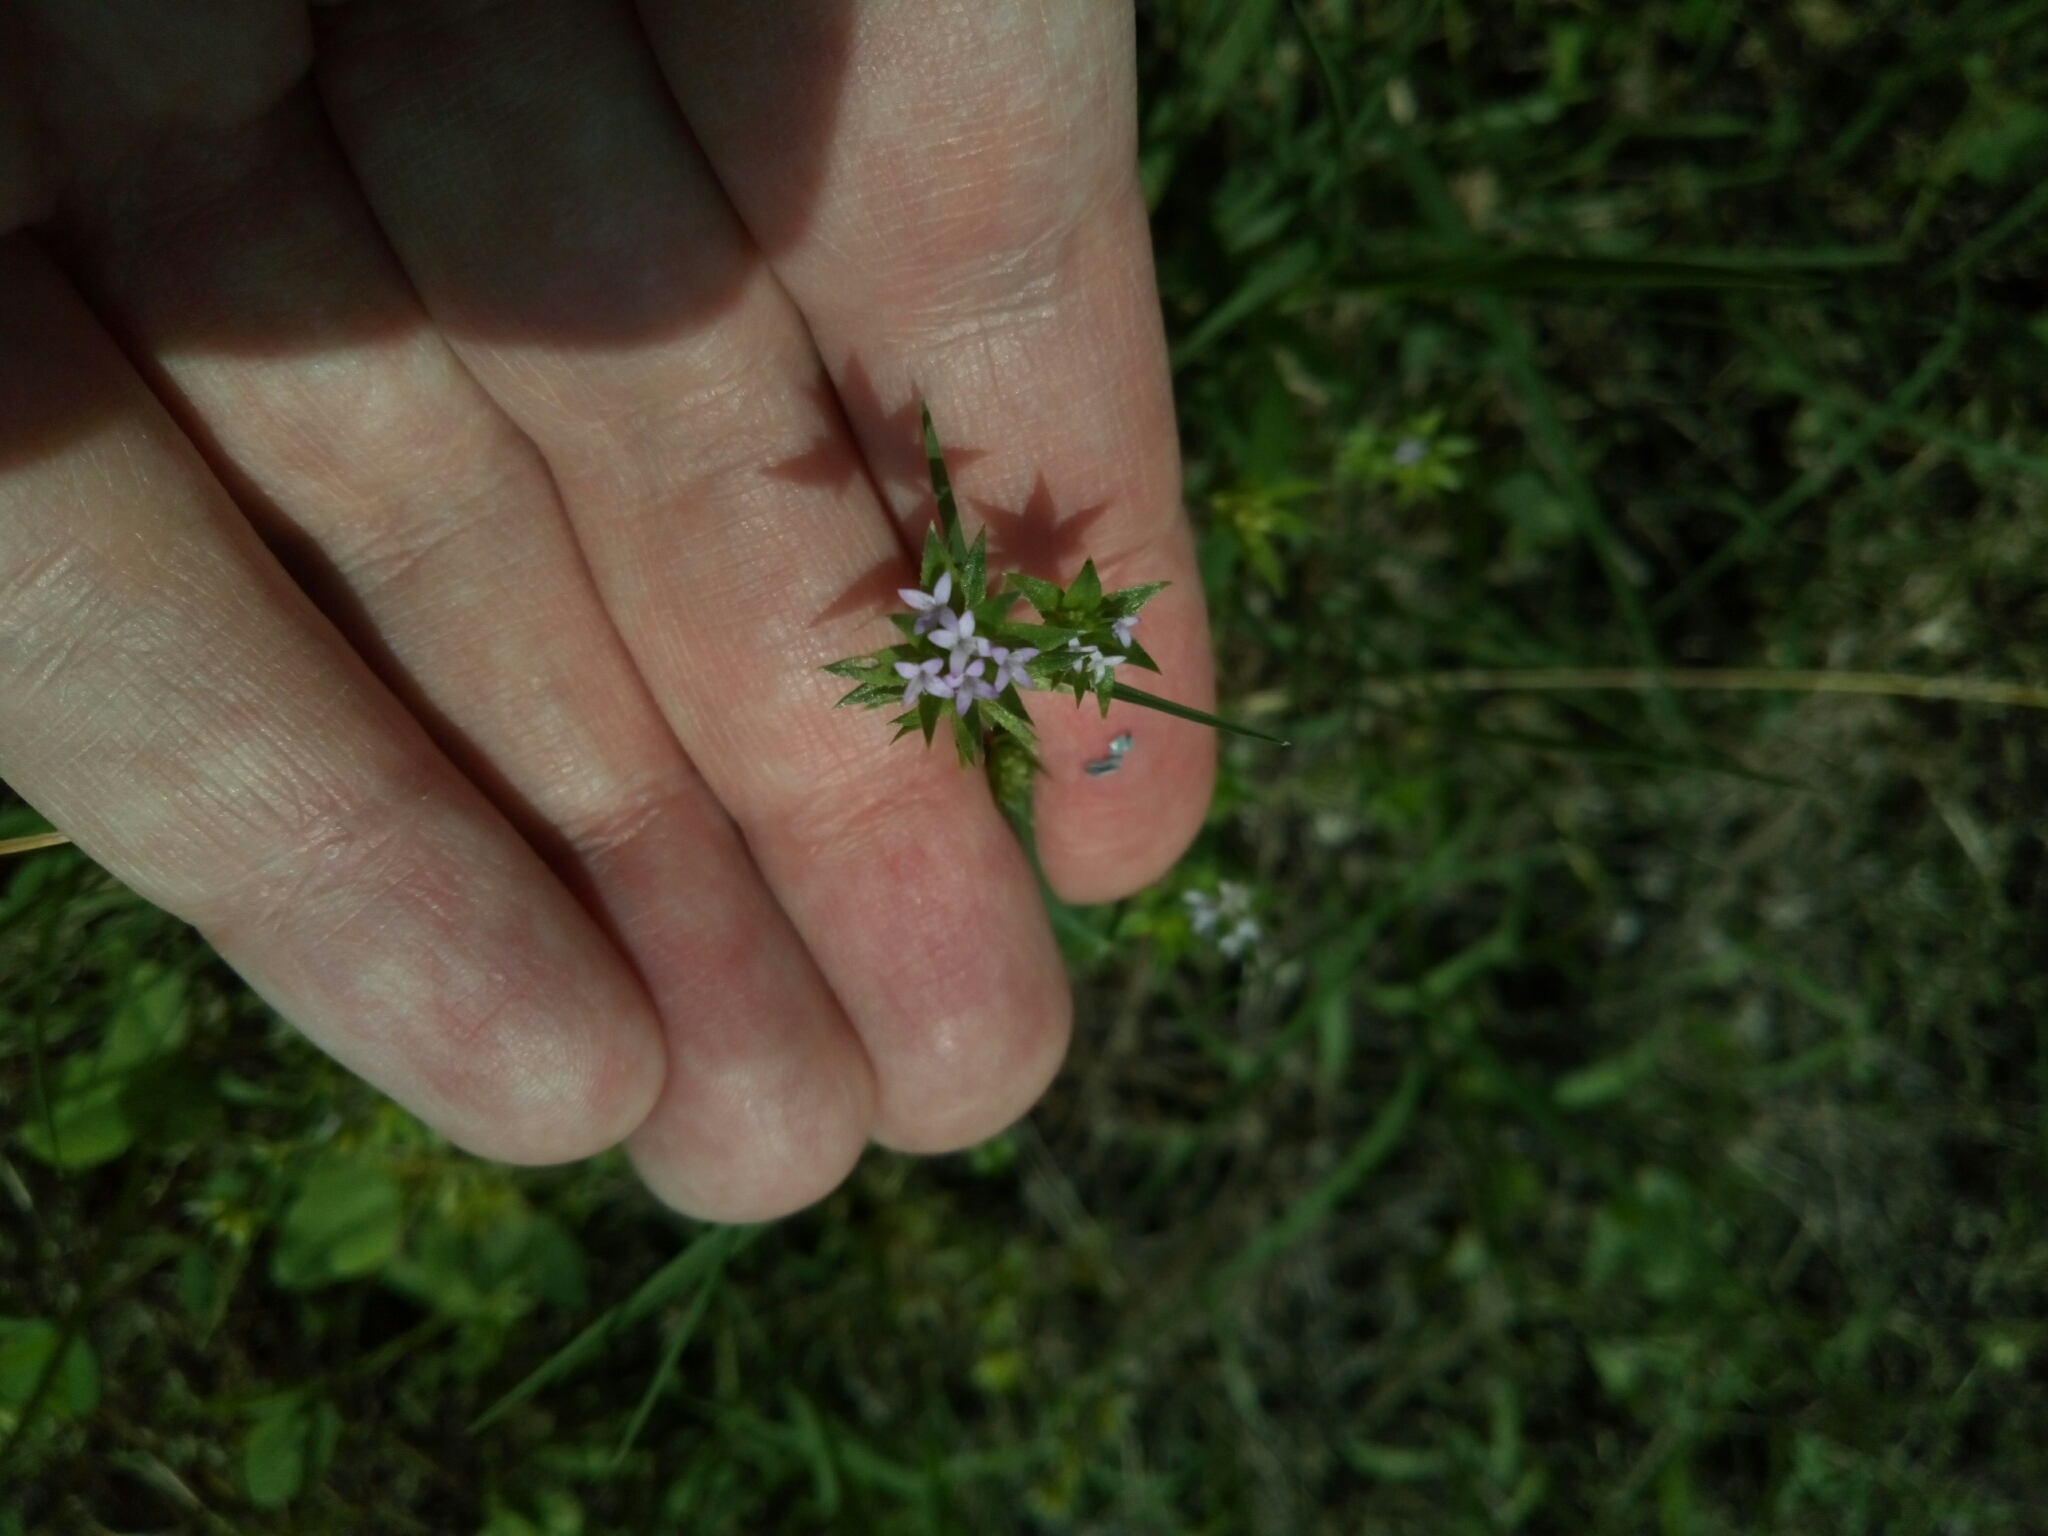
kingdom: Plantae
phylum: Tracheophyta
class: Magnoliopsida
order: Gentianales
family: Rubiaceae
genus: Sherardia
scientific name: Sherardia arvensis
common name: Field madder
